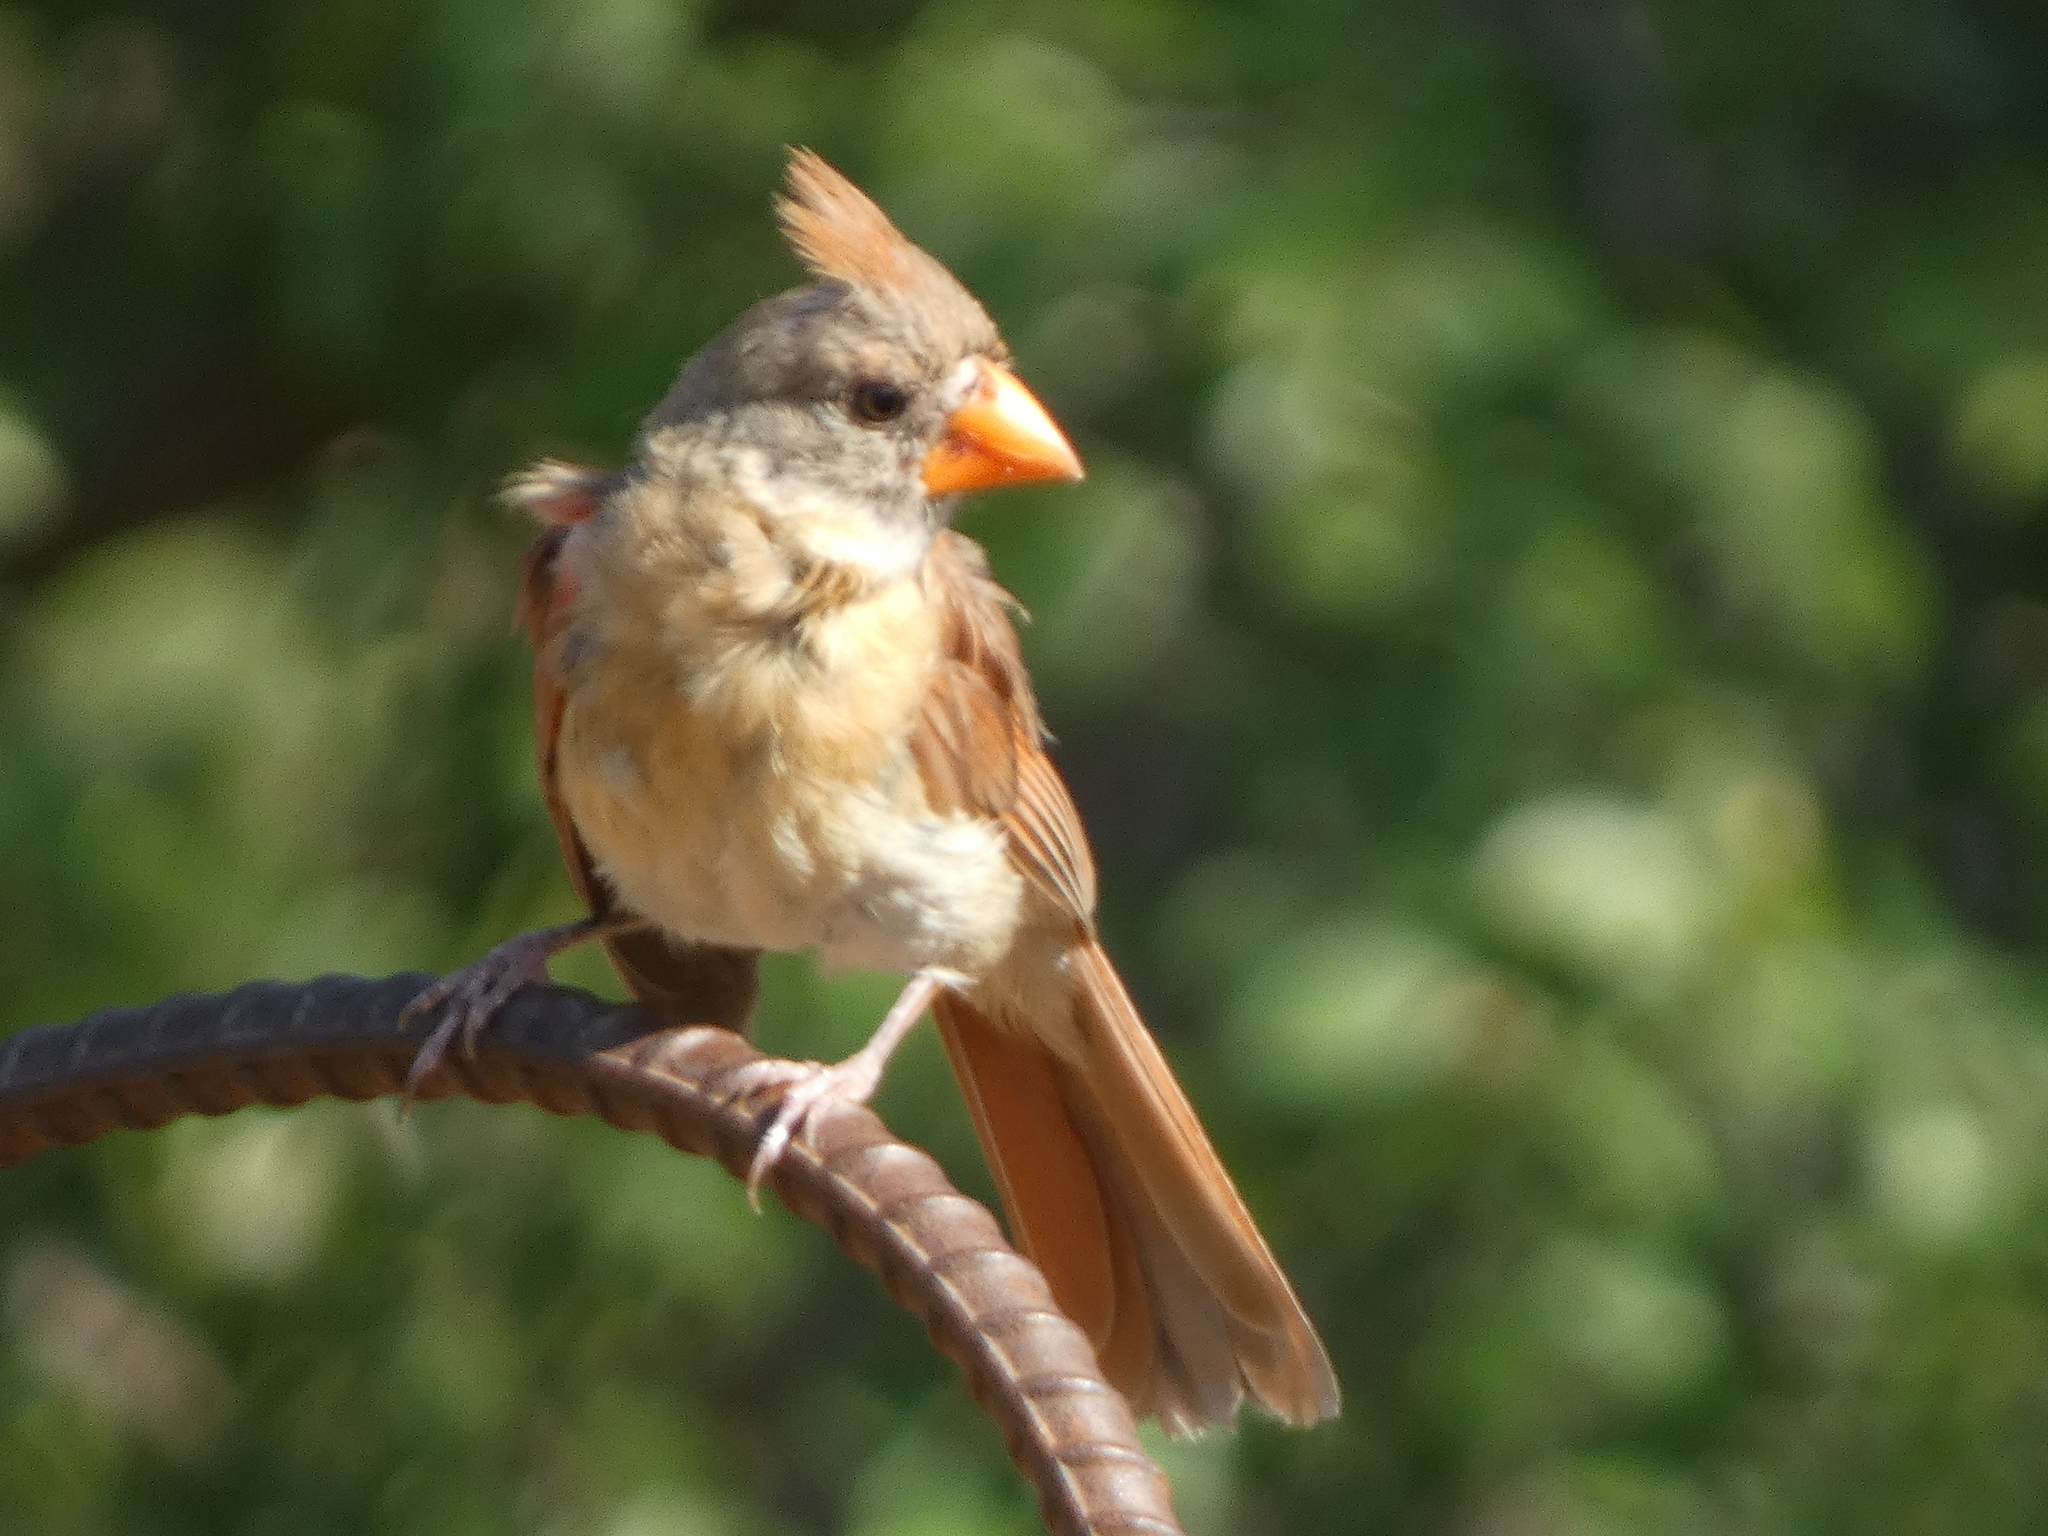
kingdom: Animalia
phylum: Chordata
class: Aves
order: Passeriformes
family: Cardinalidae
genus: Cardinalis
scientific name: Cardinalis cardinalis
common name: Northern cardinal
